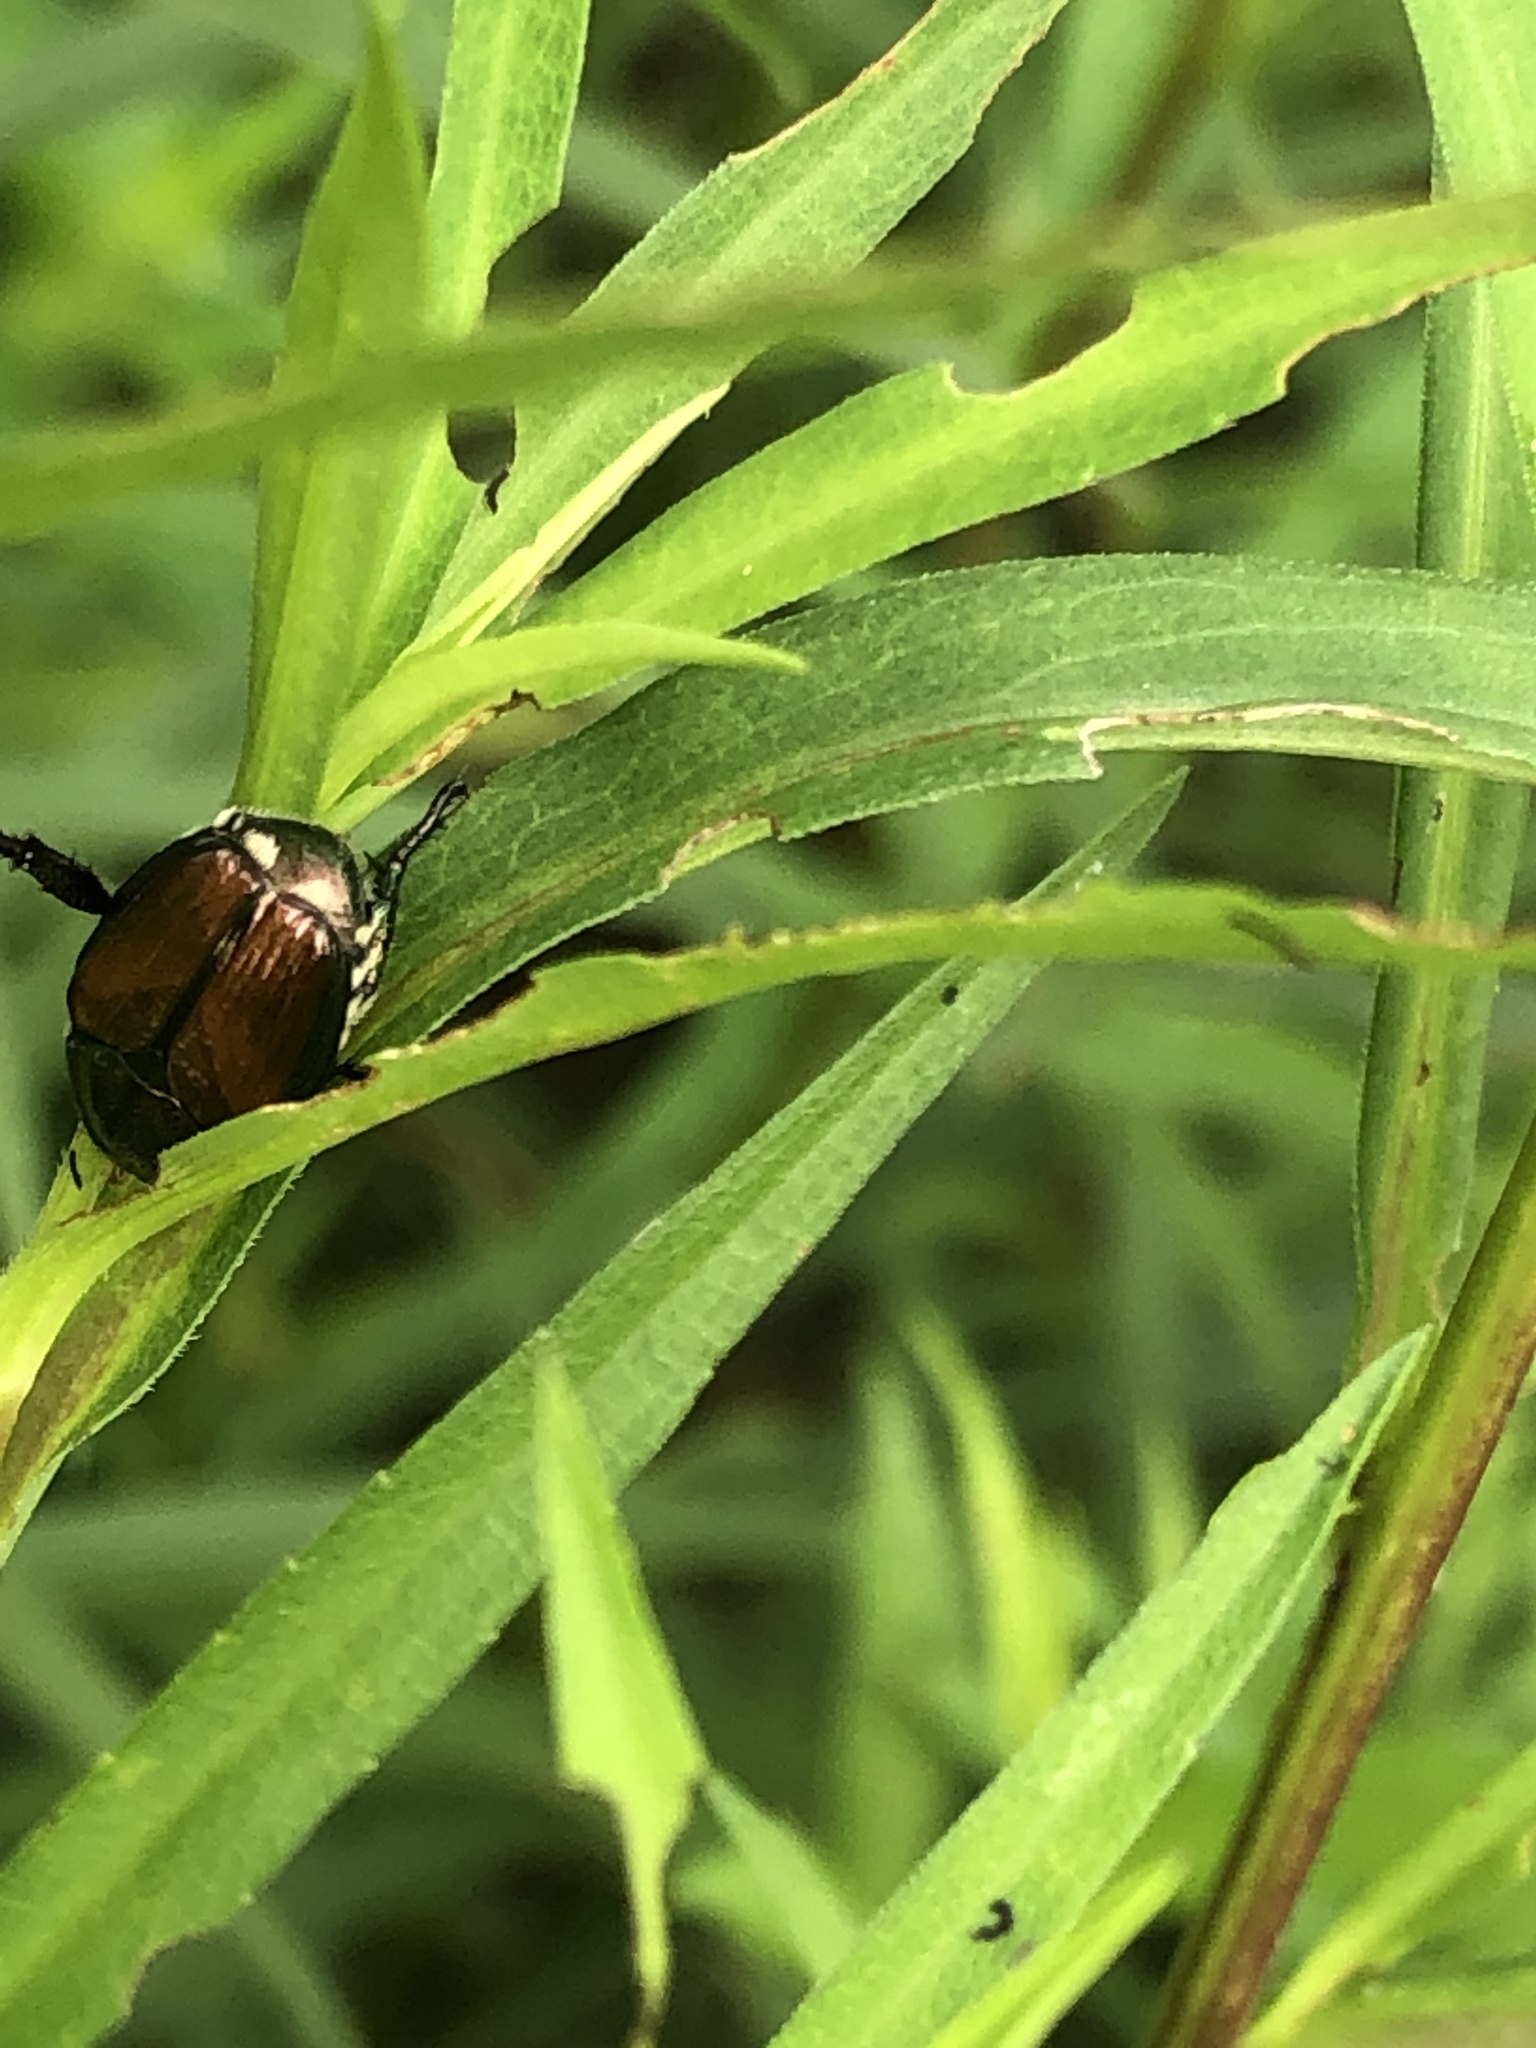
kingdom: Animalia
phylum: Arthropoda
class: Insecta
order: Coleoptera
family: Scarabaeidae
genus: Popillia
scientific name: Popillia japonica
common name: Japanese beetle
